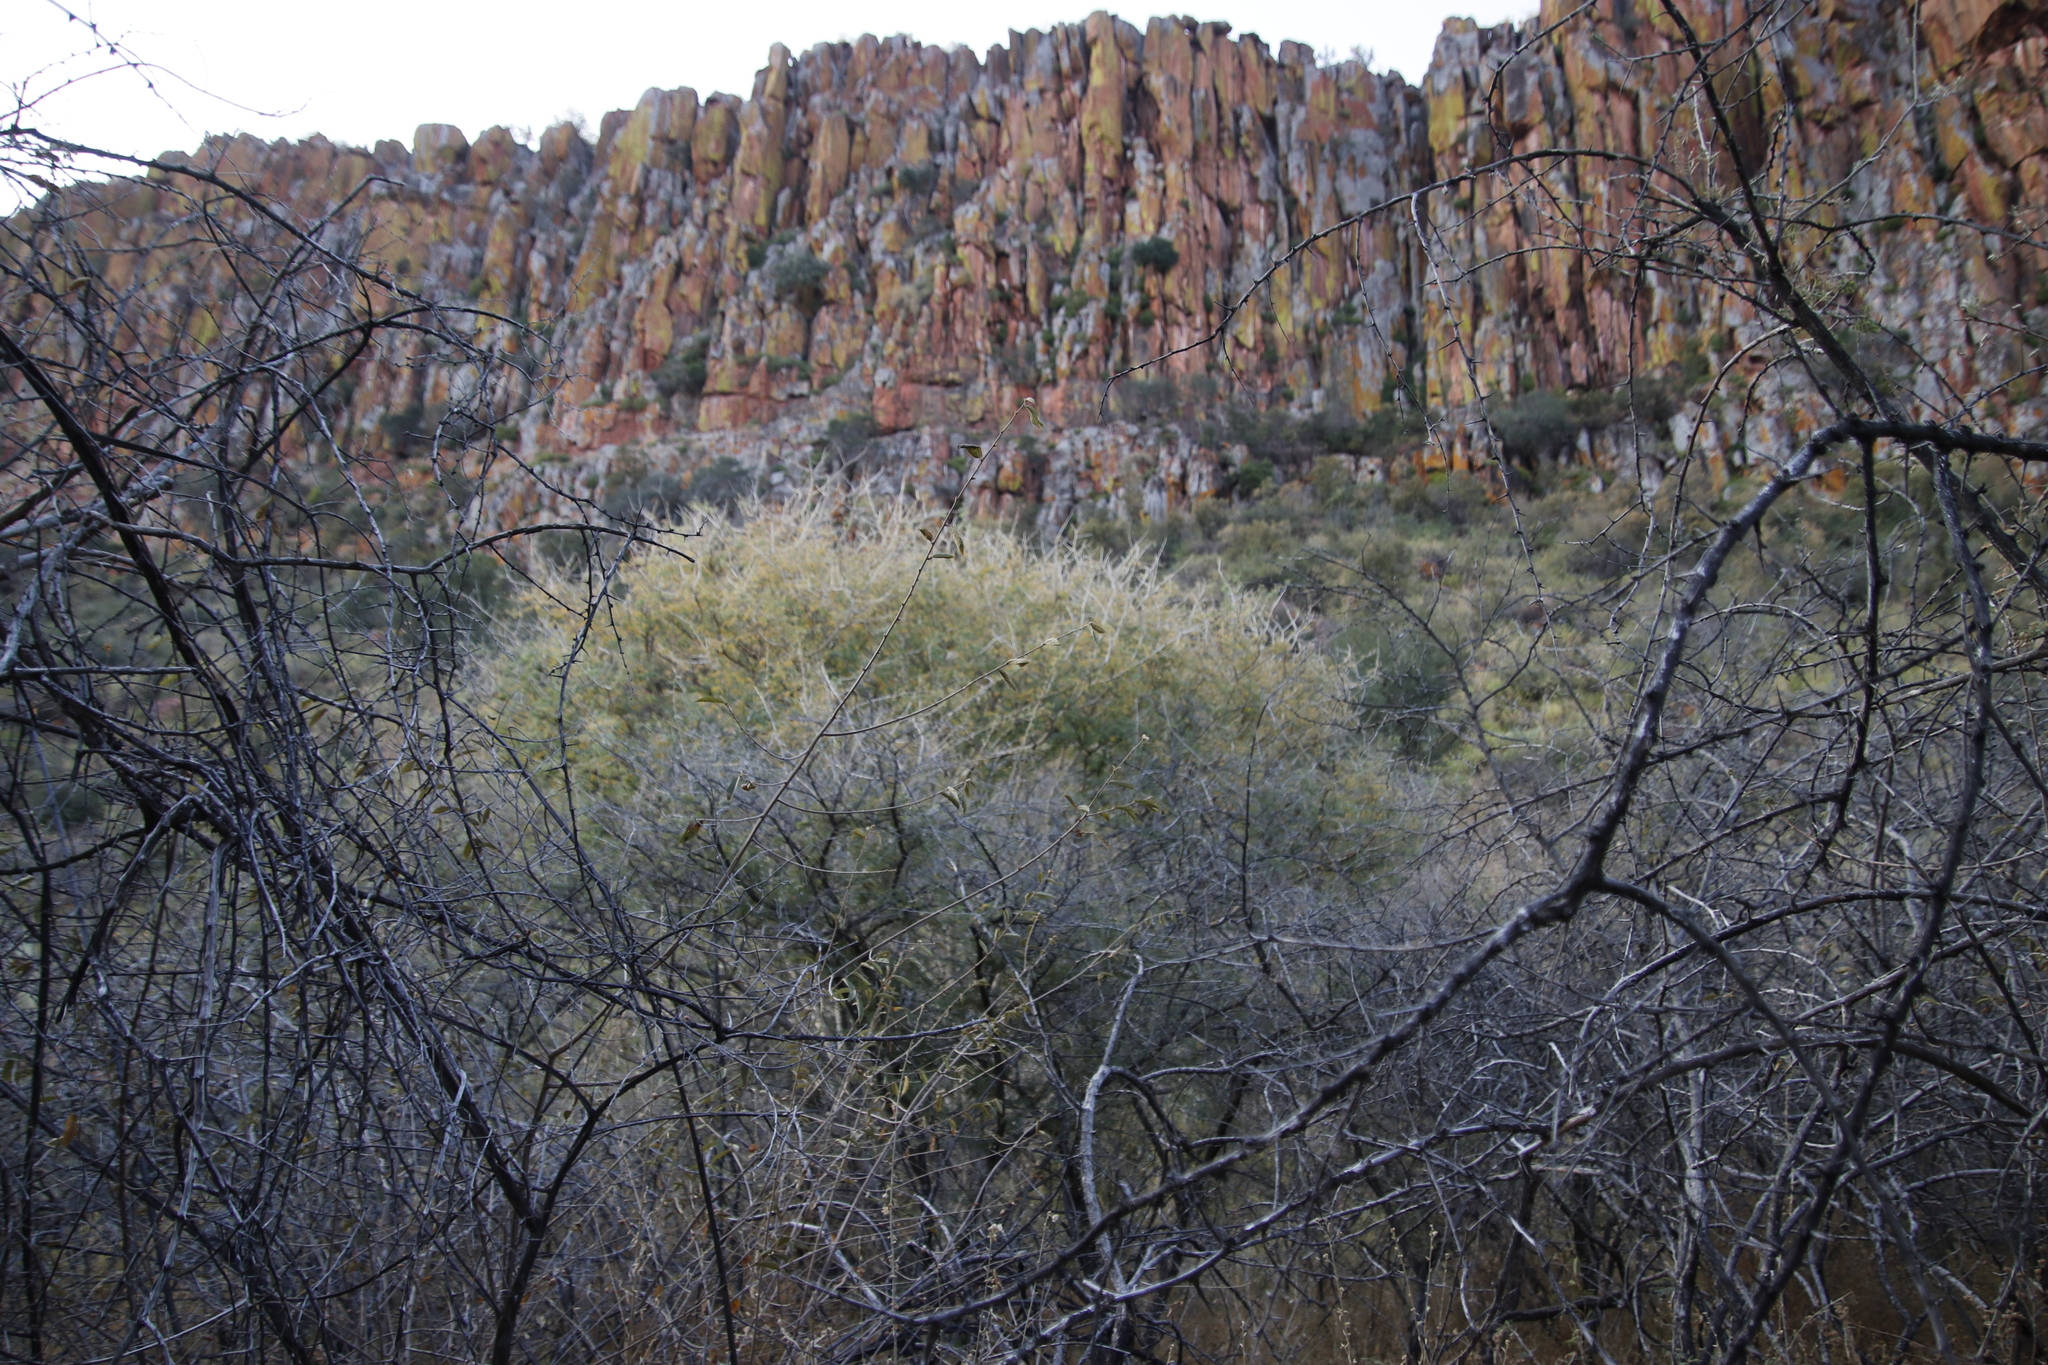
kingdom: Plantae
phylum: Tracheophyta
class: Magnoliopsida
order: Fabales
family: Fabaceae
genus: Senegalia
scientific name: Senegalia erubescens
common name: Bluethorn
